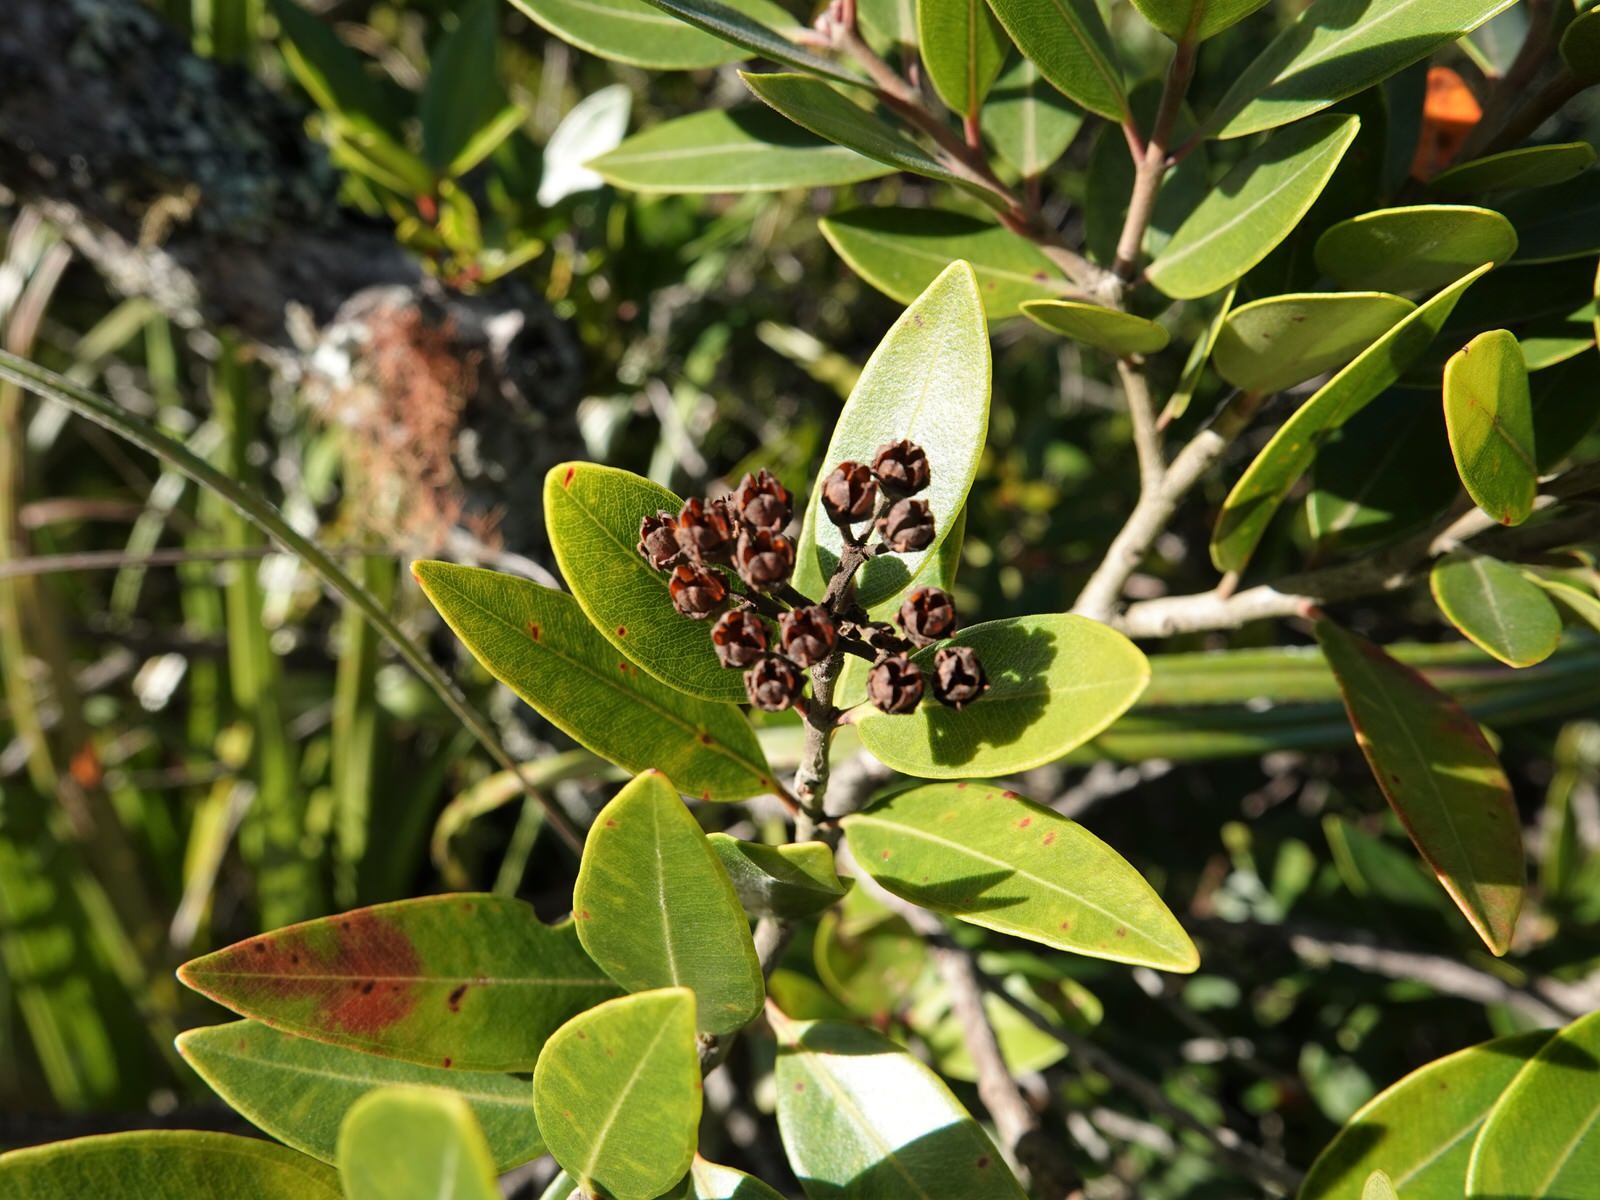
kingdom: Plantae
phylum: Tracheophyta
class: Magnoliopsida
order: Myrtales
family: Myrtaceae
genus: Metrosideros
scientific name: Metrosideros subtomentosa
